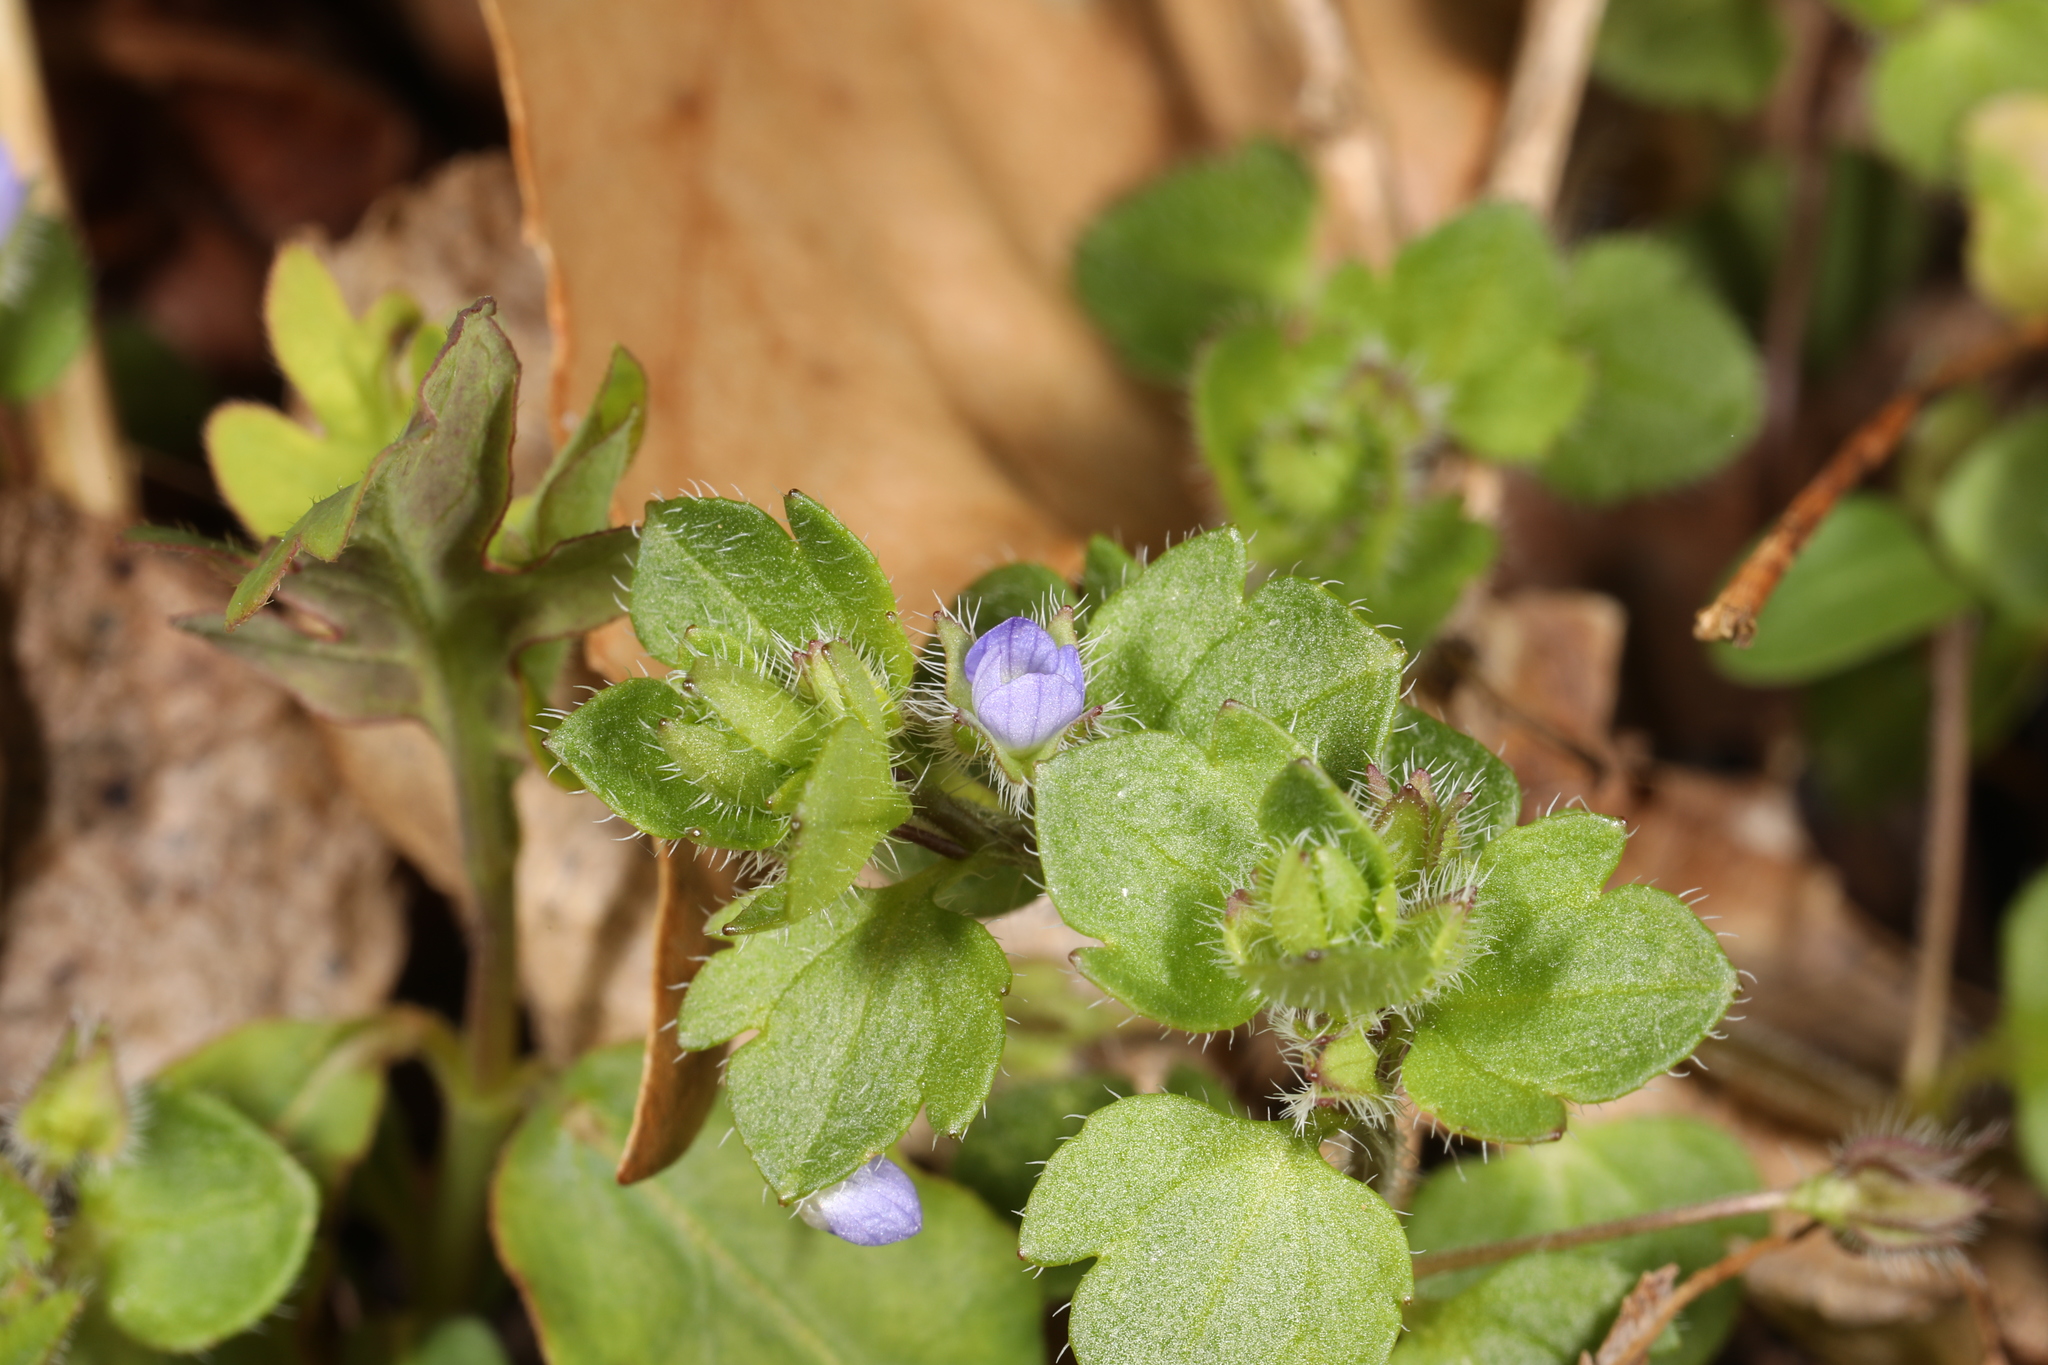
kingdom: Plantae
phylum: Tracheophyta
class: Magnoliopsida
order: Lamiales
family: Plantaginaceae
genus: Veronica
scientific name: Veronica hederifolia
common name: Ivy-leaved speedwell
